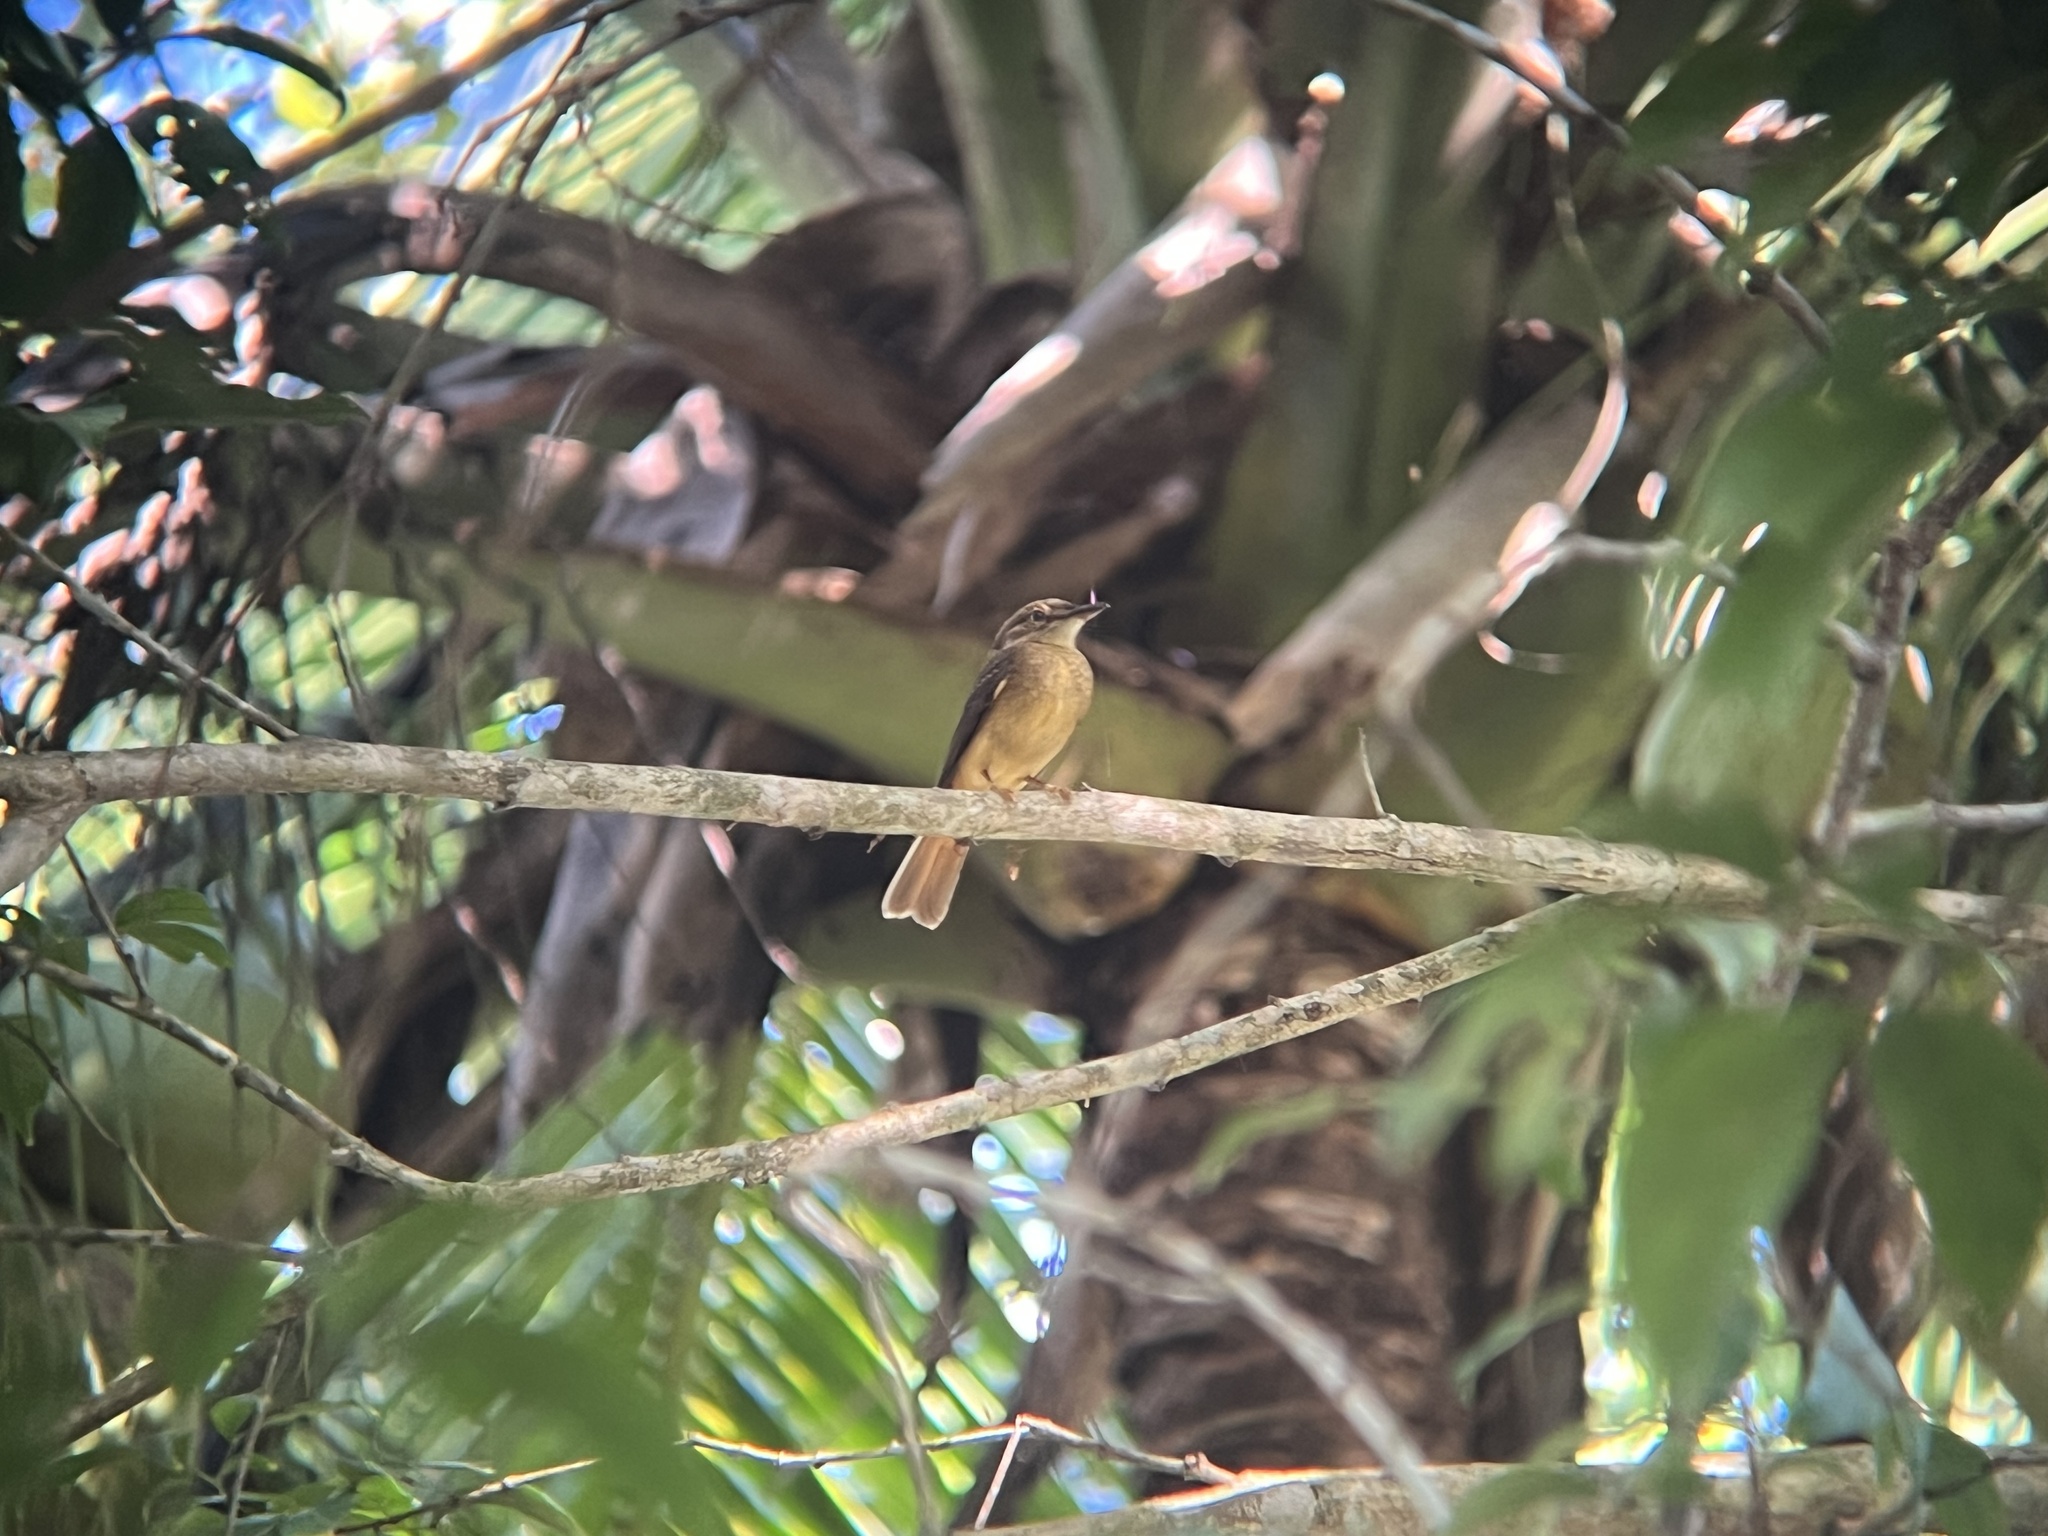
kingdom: Animalia
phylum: Chordata
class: Aves
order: Passeriformes
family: Tyrannidae
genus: Onychorhynchus
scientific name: Onychorhynchus coronatus
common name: Royal flycatcher
